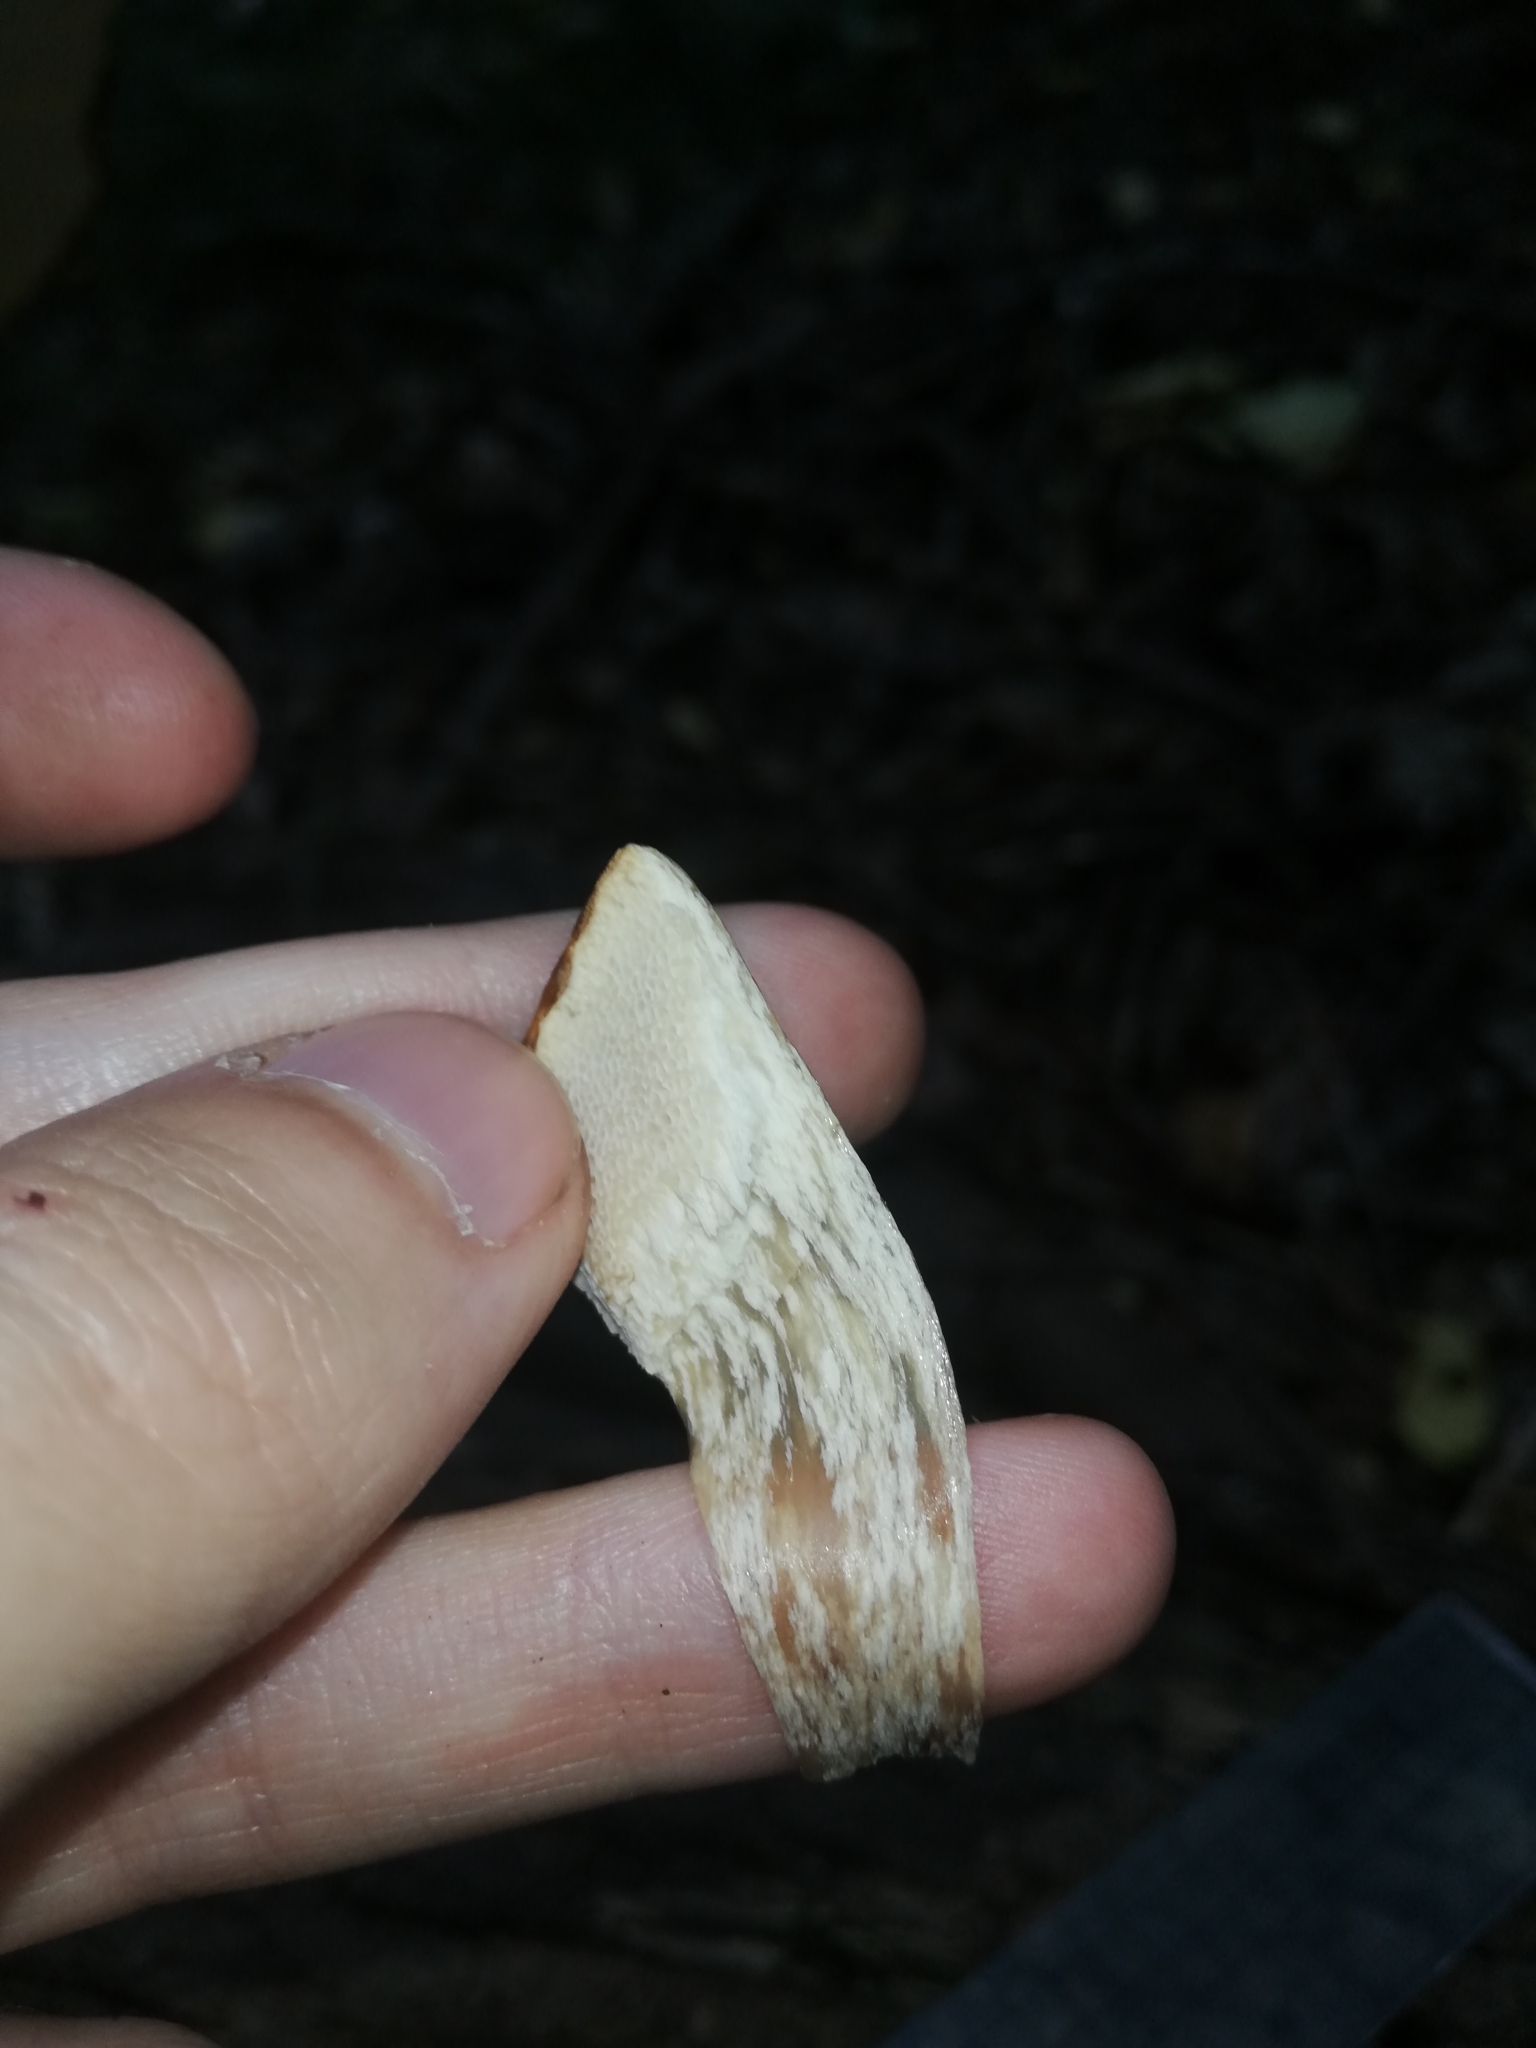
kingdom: Fungi
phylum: Basidiomycota
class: Agaricomycetes
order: Polyporales
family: Polyporaceae
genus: Cerioporus
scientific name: Cerioporus squamosus
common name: Dryad's saddle
